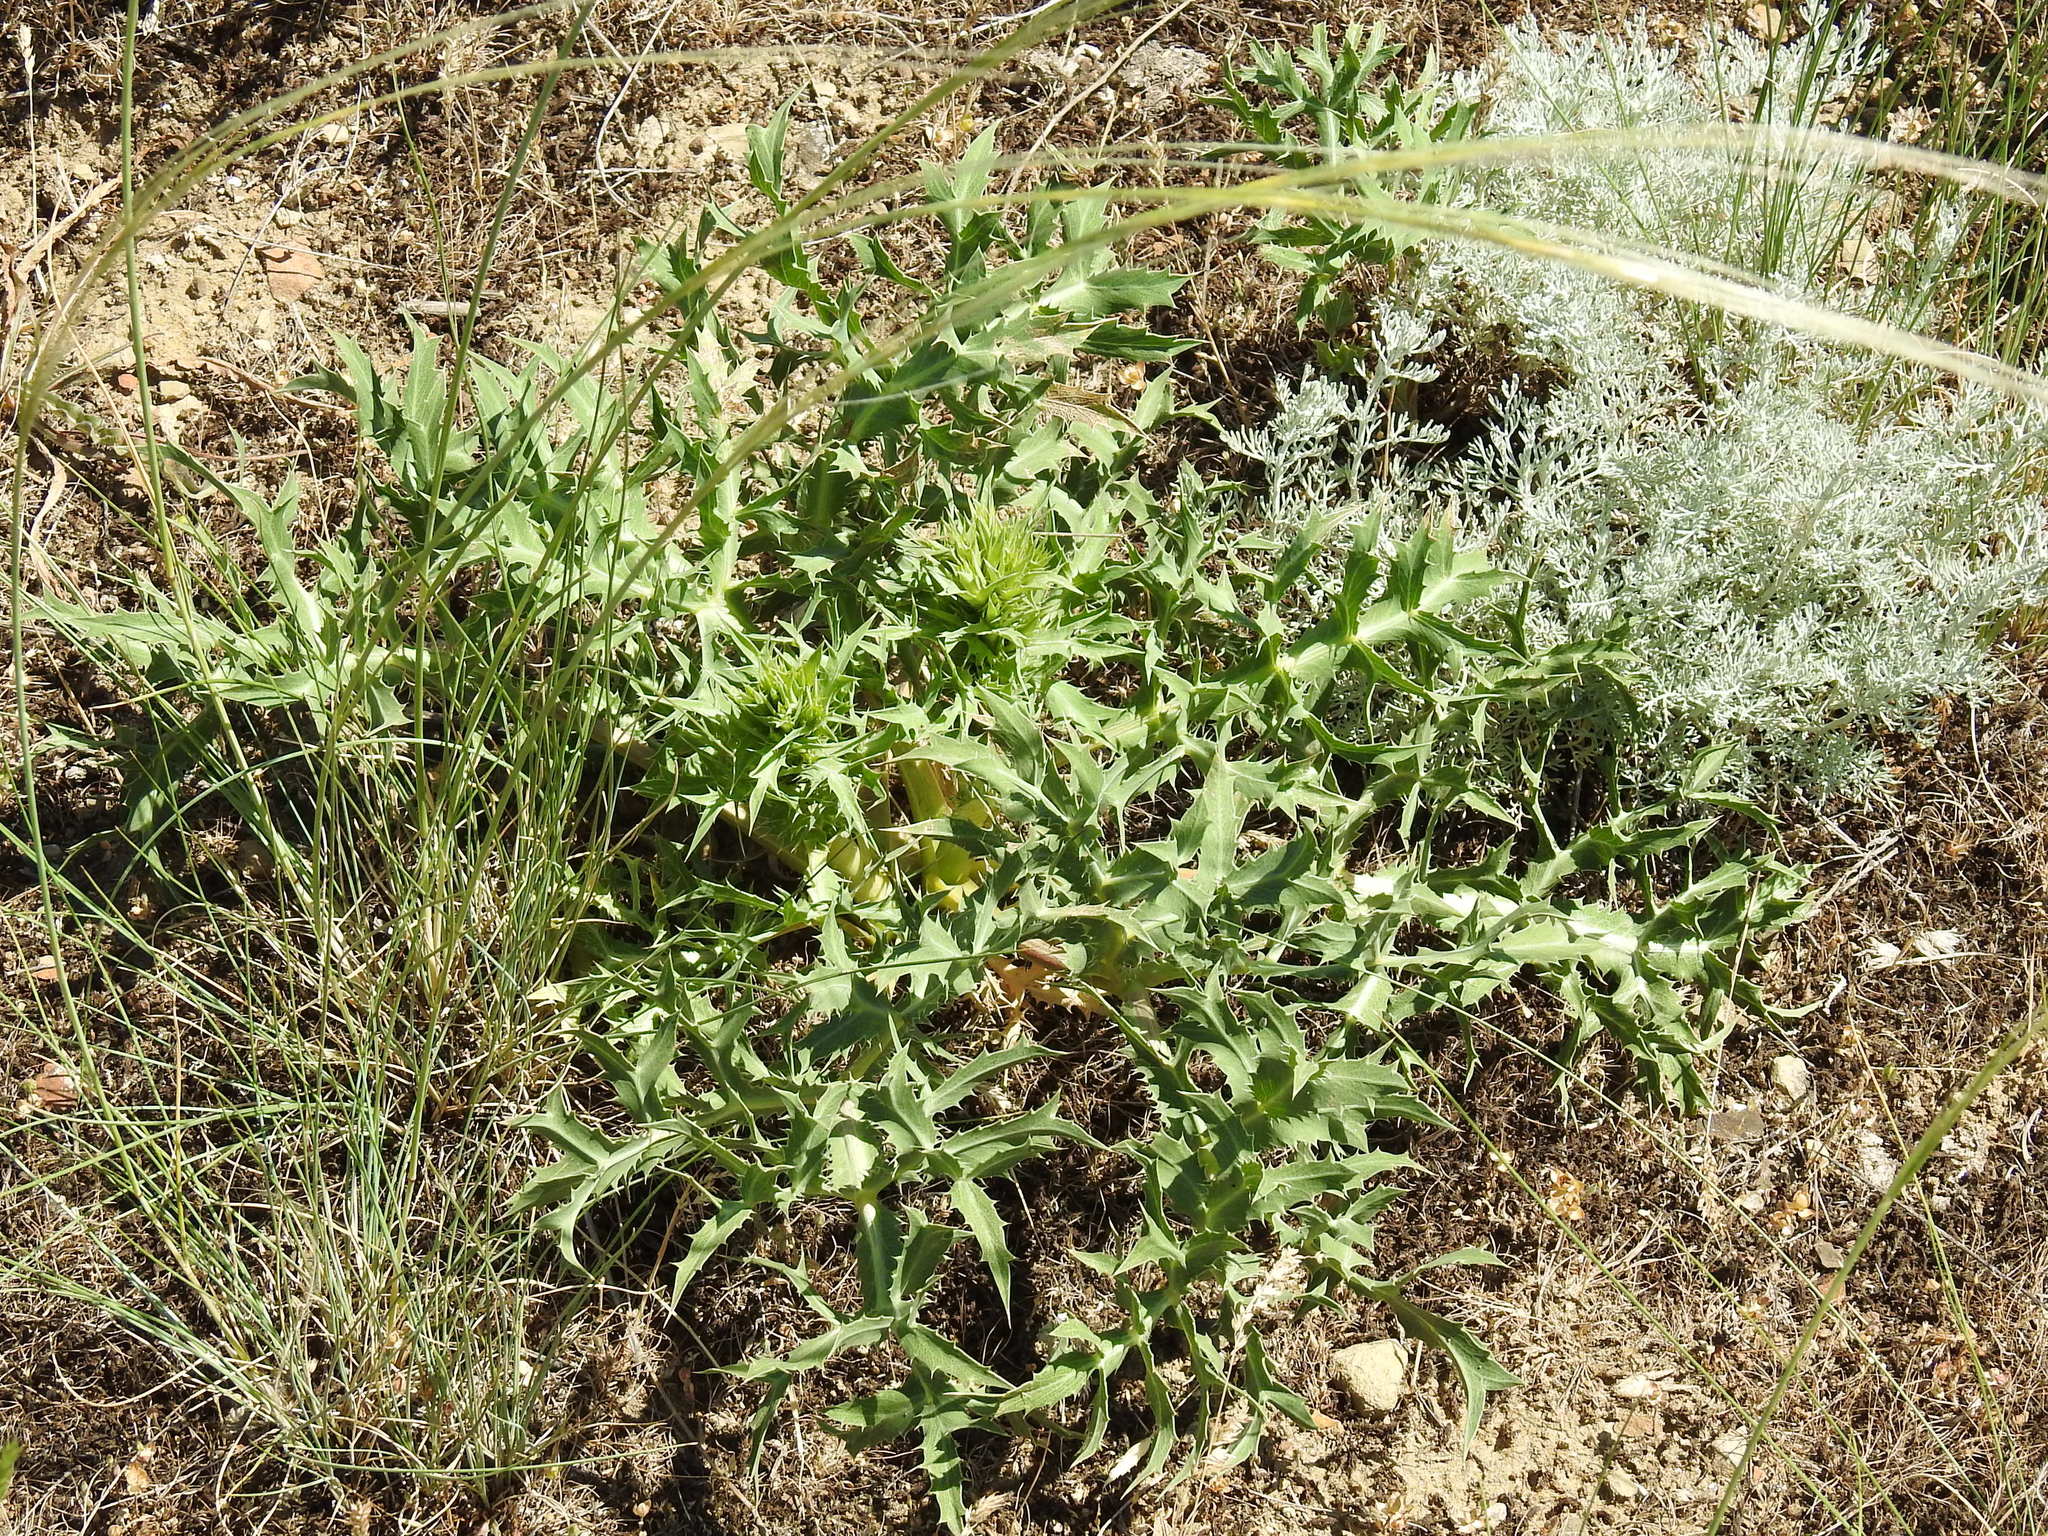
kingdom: Plantae
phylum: Tracheophyta
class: Magnoliopsida
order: Apiales
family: Apiaceae
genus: Eryngium
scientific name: Eryngium campestre
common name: Field eryngo
